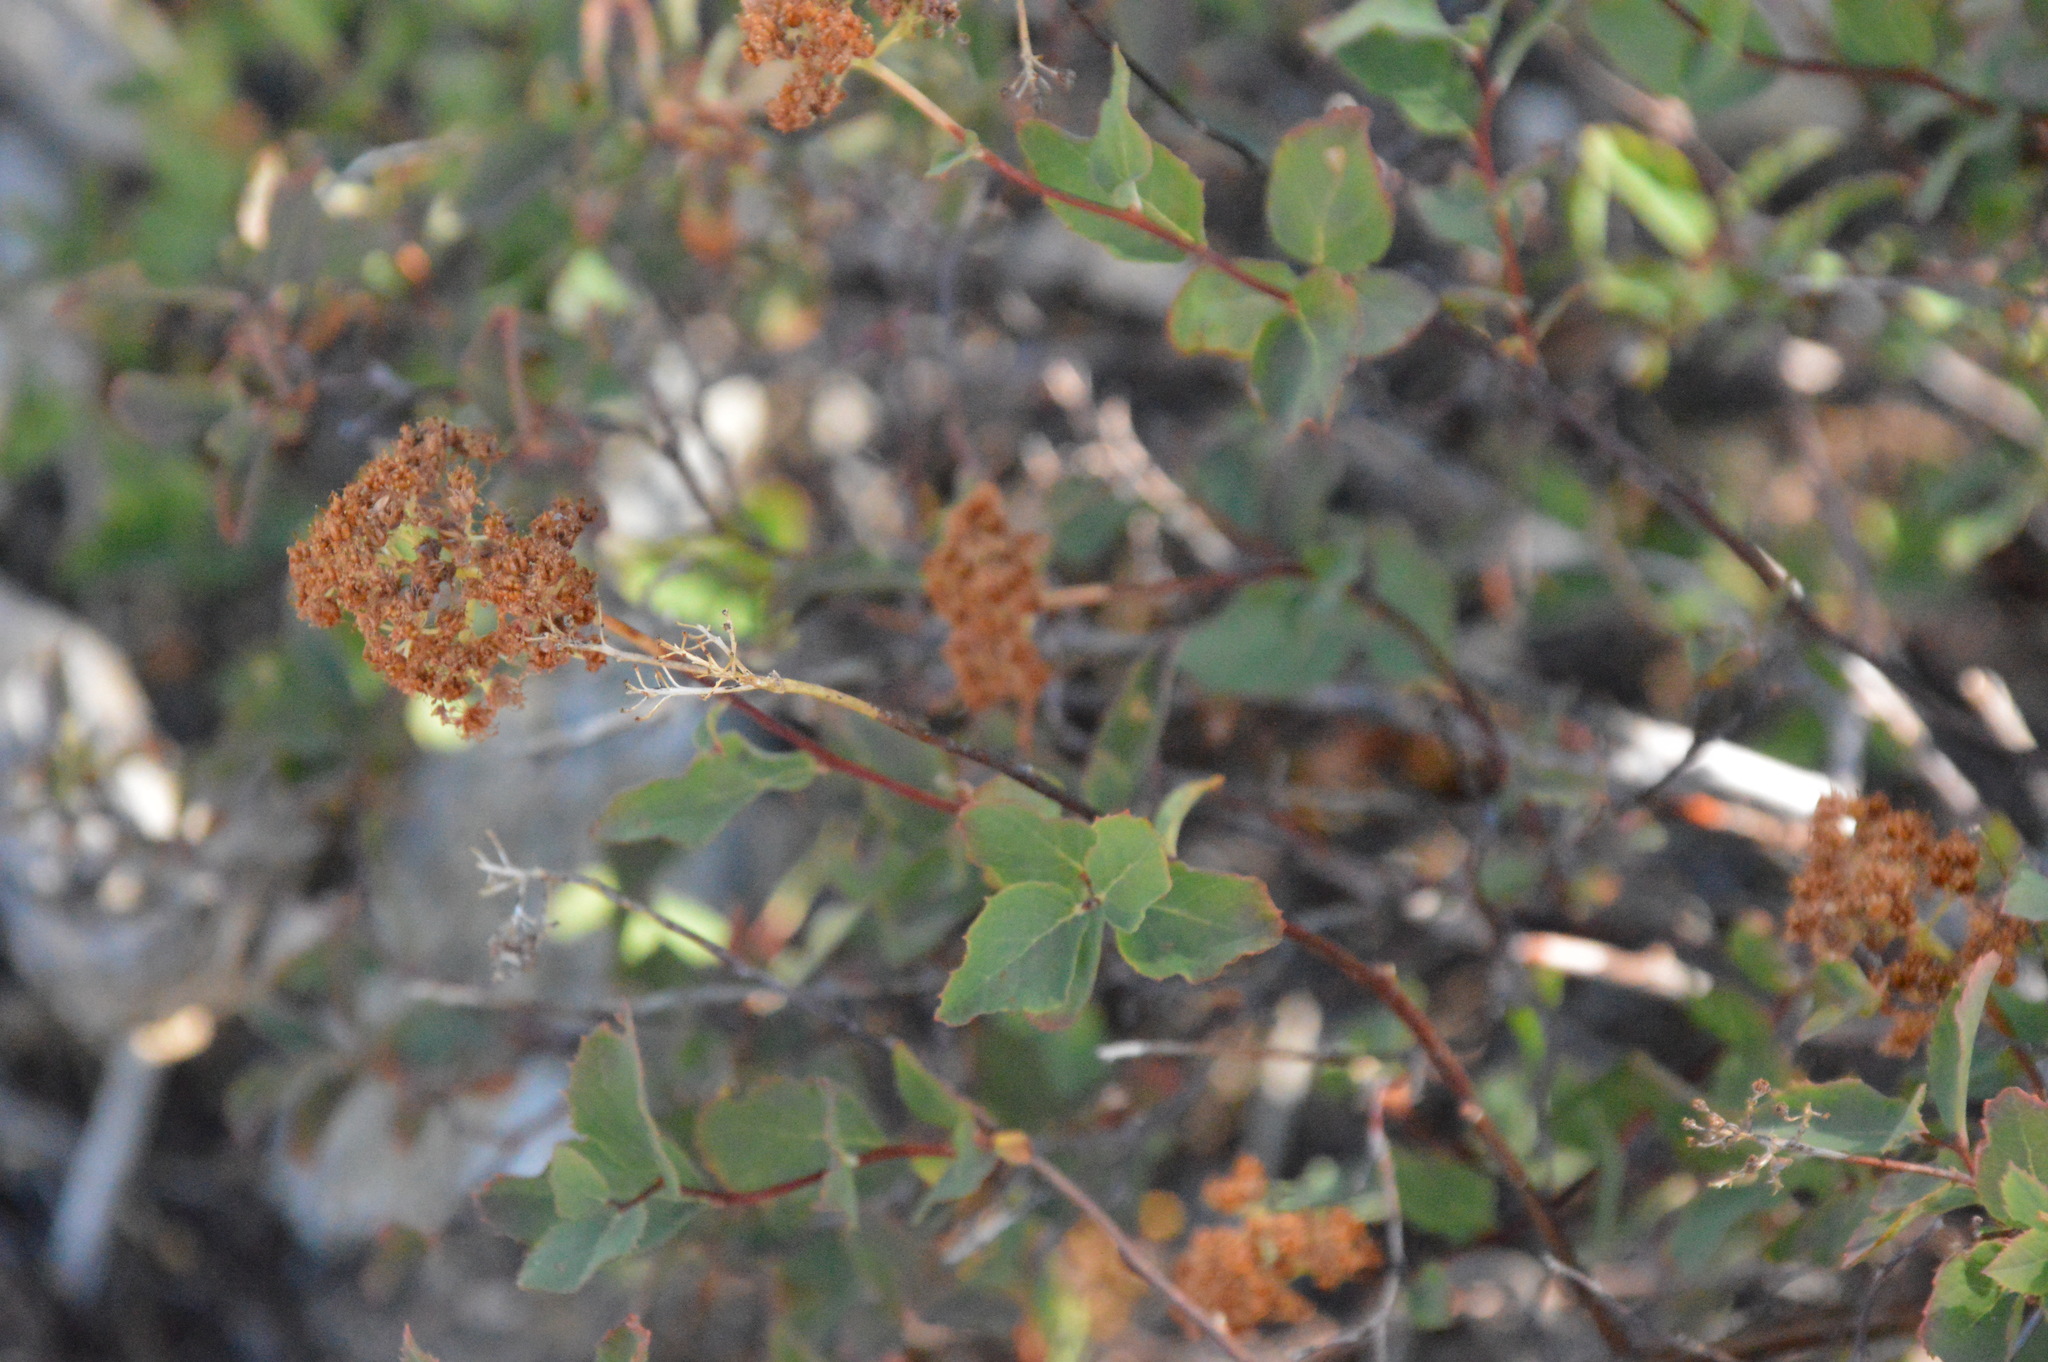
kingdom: Plantae
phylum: Tracheophyta
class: Magnoliopsida
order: Rosales
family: Rosaceae
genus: Spiraea
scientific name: Spiraea splendens
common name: Subalpine meadowsweet
